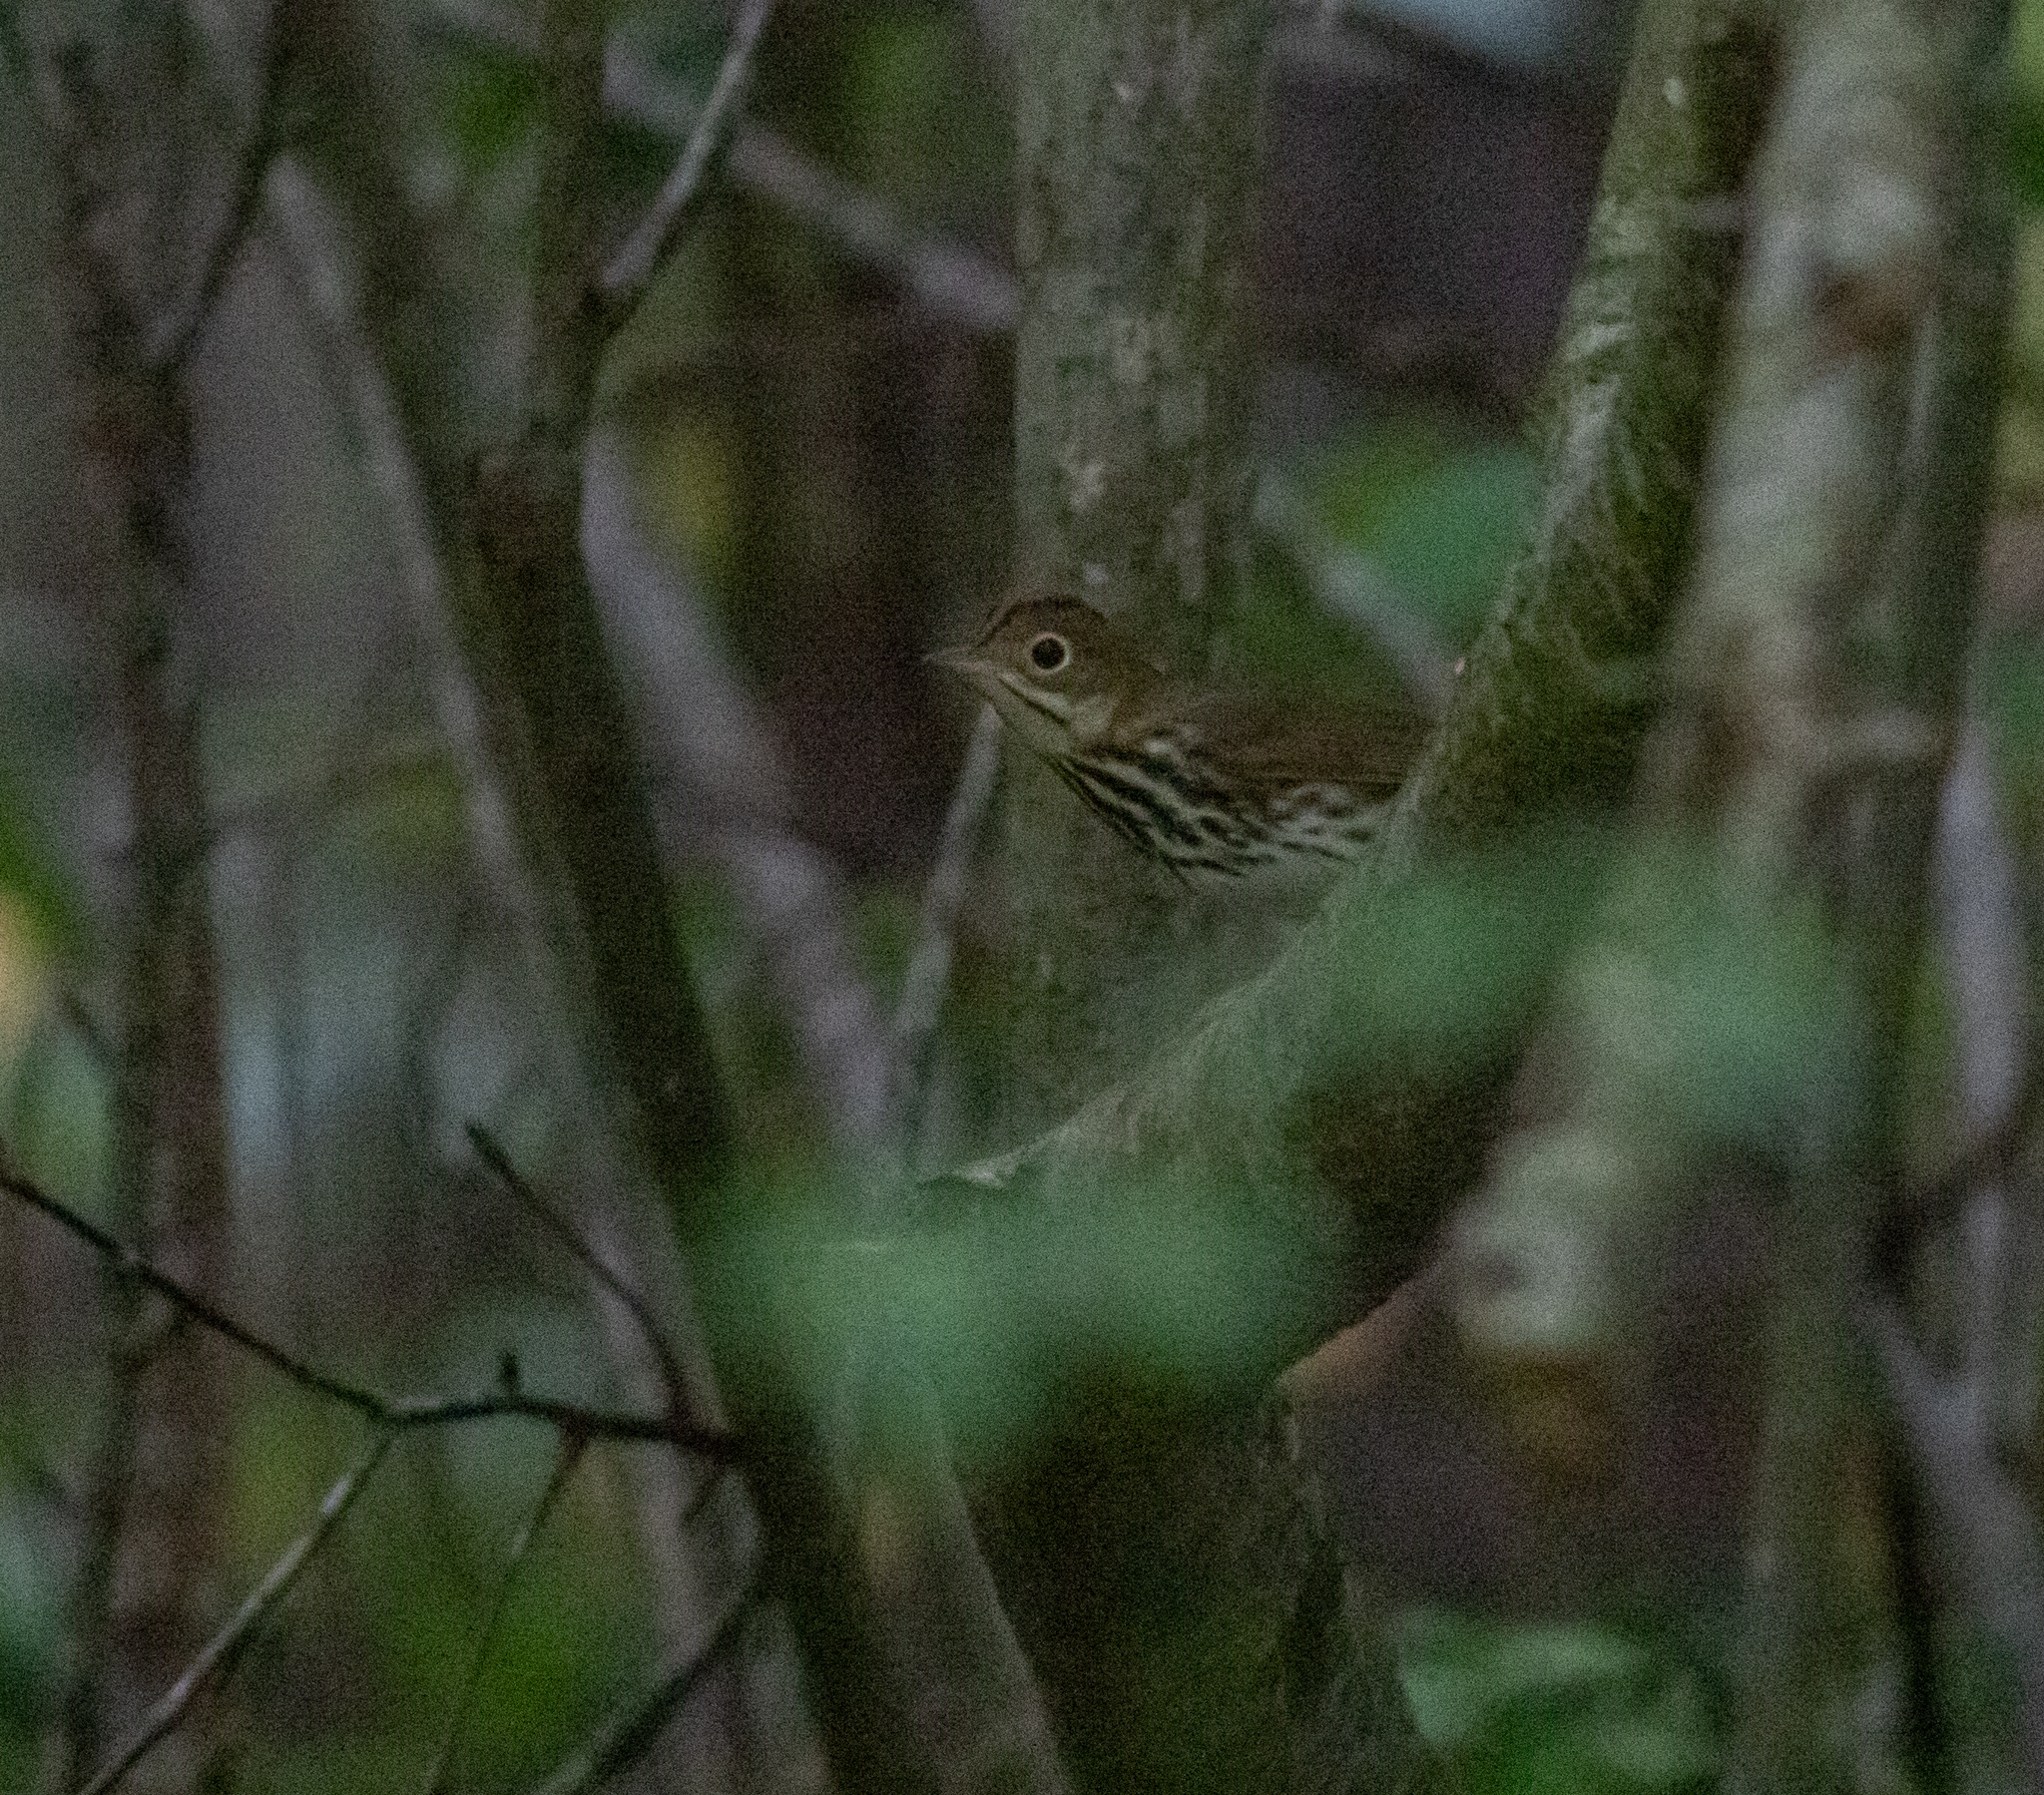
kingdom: Animalia
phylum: Chordata
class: Aves
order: Passeriformes
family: Parulidae
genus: Seiurus
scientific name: Seiurus aurocapilla
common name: Ovenbird
